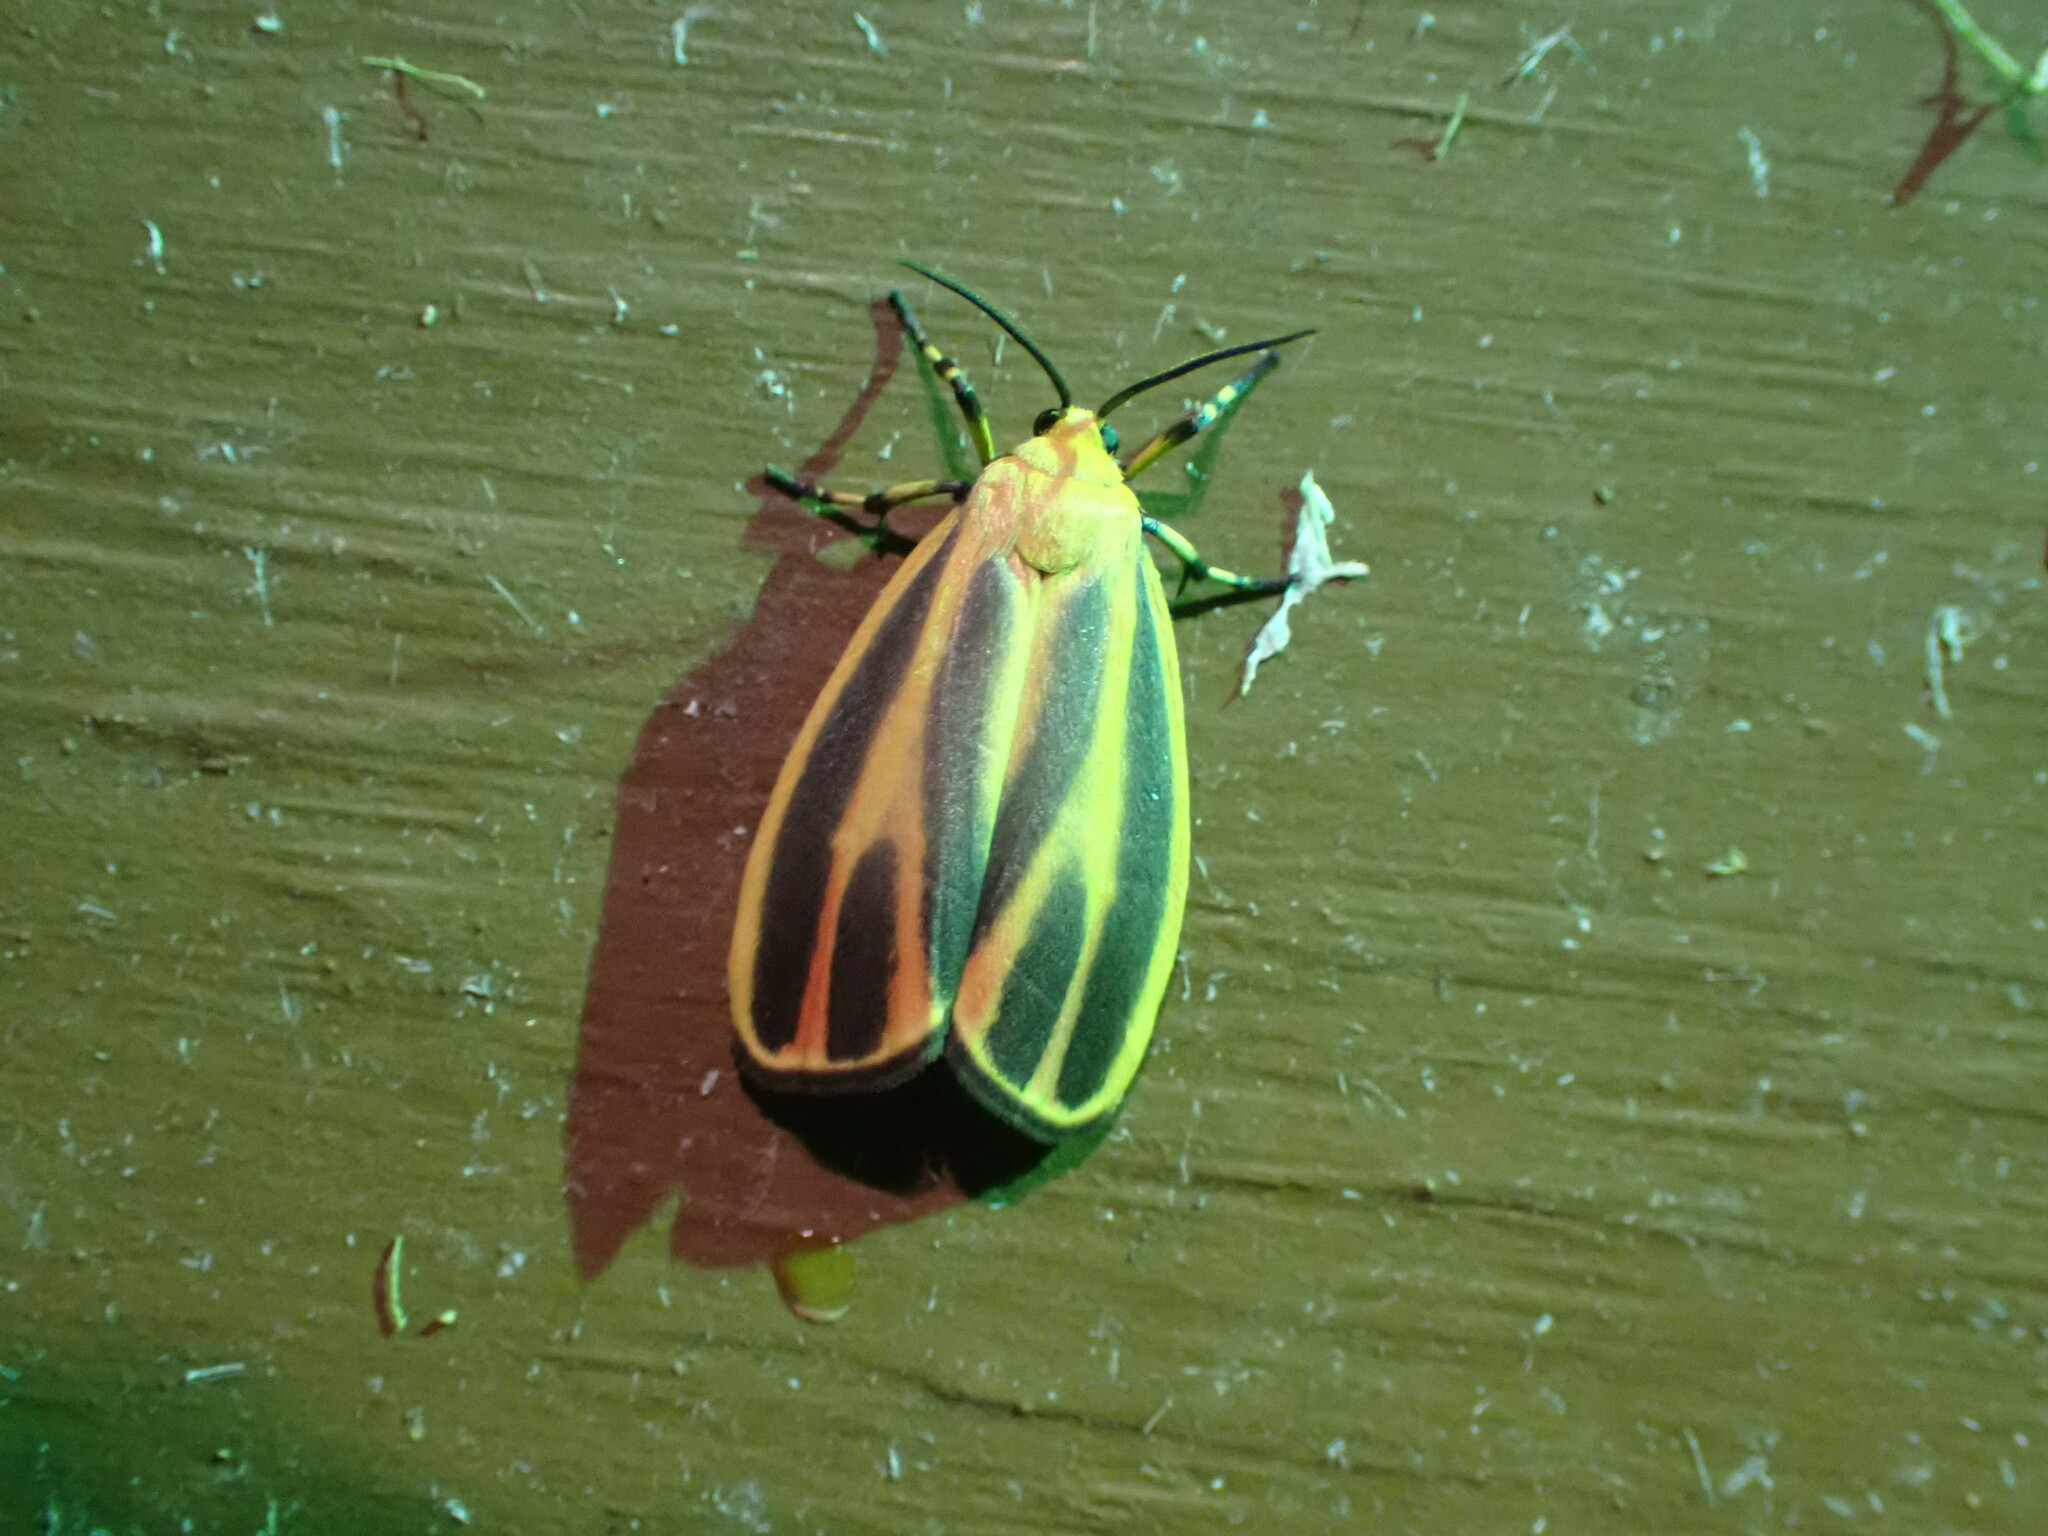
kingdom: Animalia
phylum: Arthropoda
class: Insecta
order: Lepidoptera
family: Erebidae
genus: Hypoprepia
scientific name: Hypoprepia fucosa
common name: Painted lichen moth
